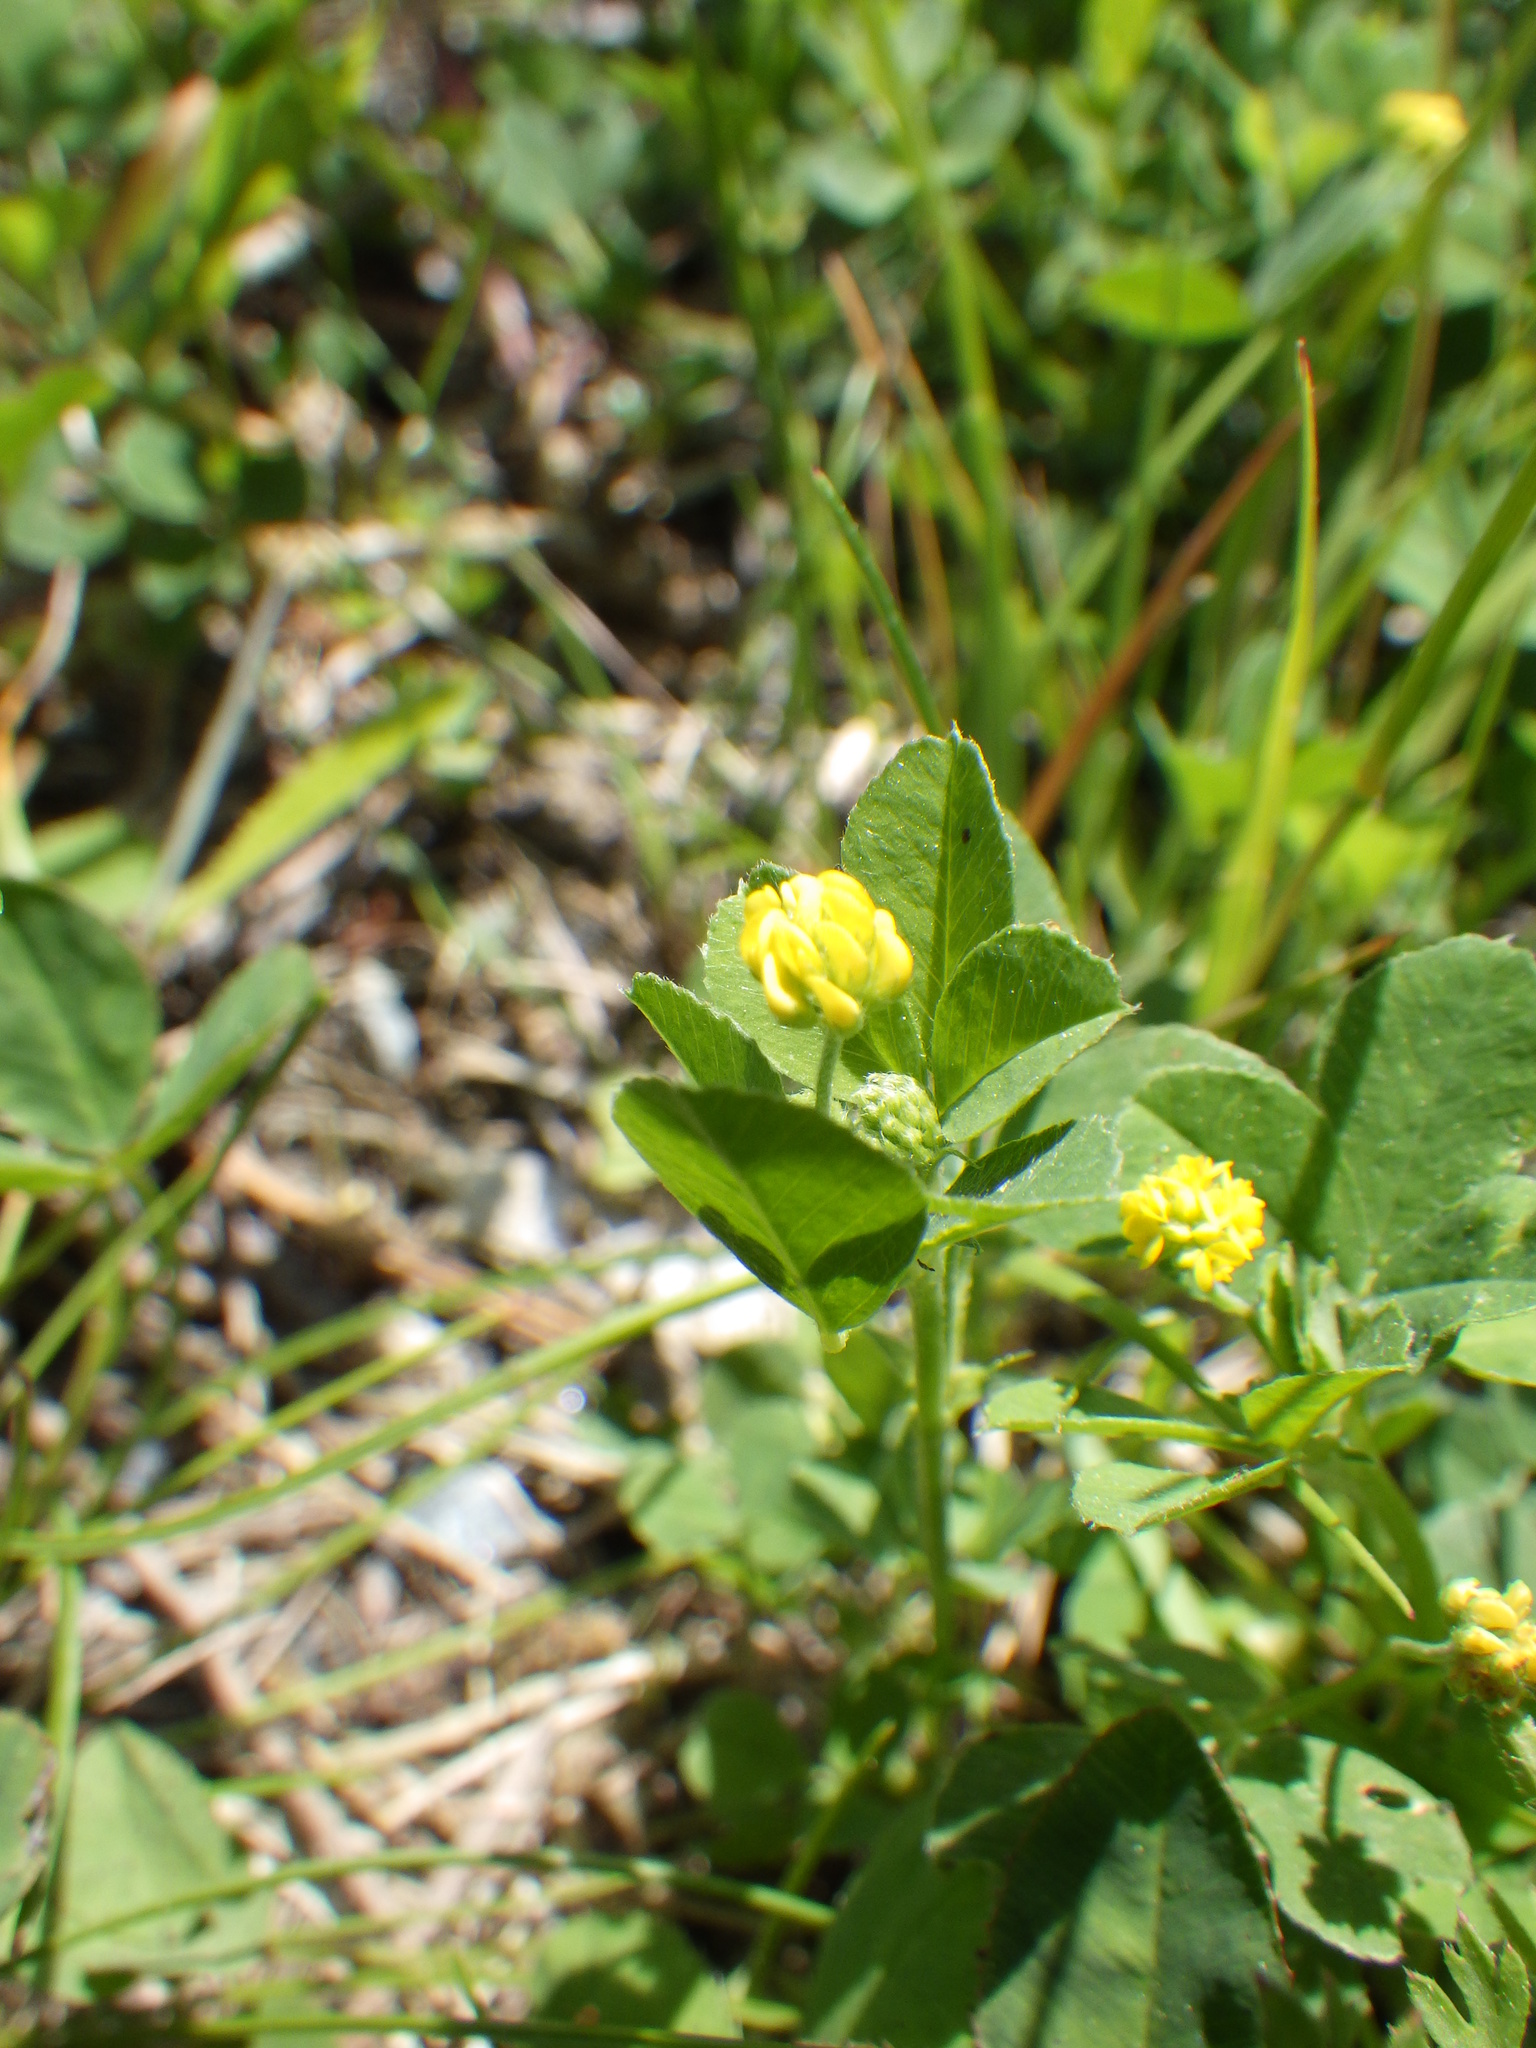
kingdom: Plantae
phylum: Tracheophyta
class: Magnoliopsida
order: Fabales
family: Fabaceae
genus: Medicago
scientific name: Medicago lupulina
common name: Black medick
